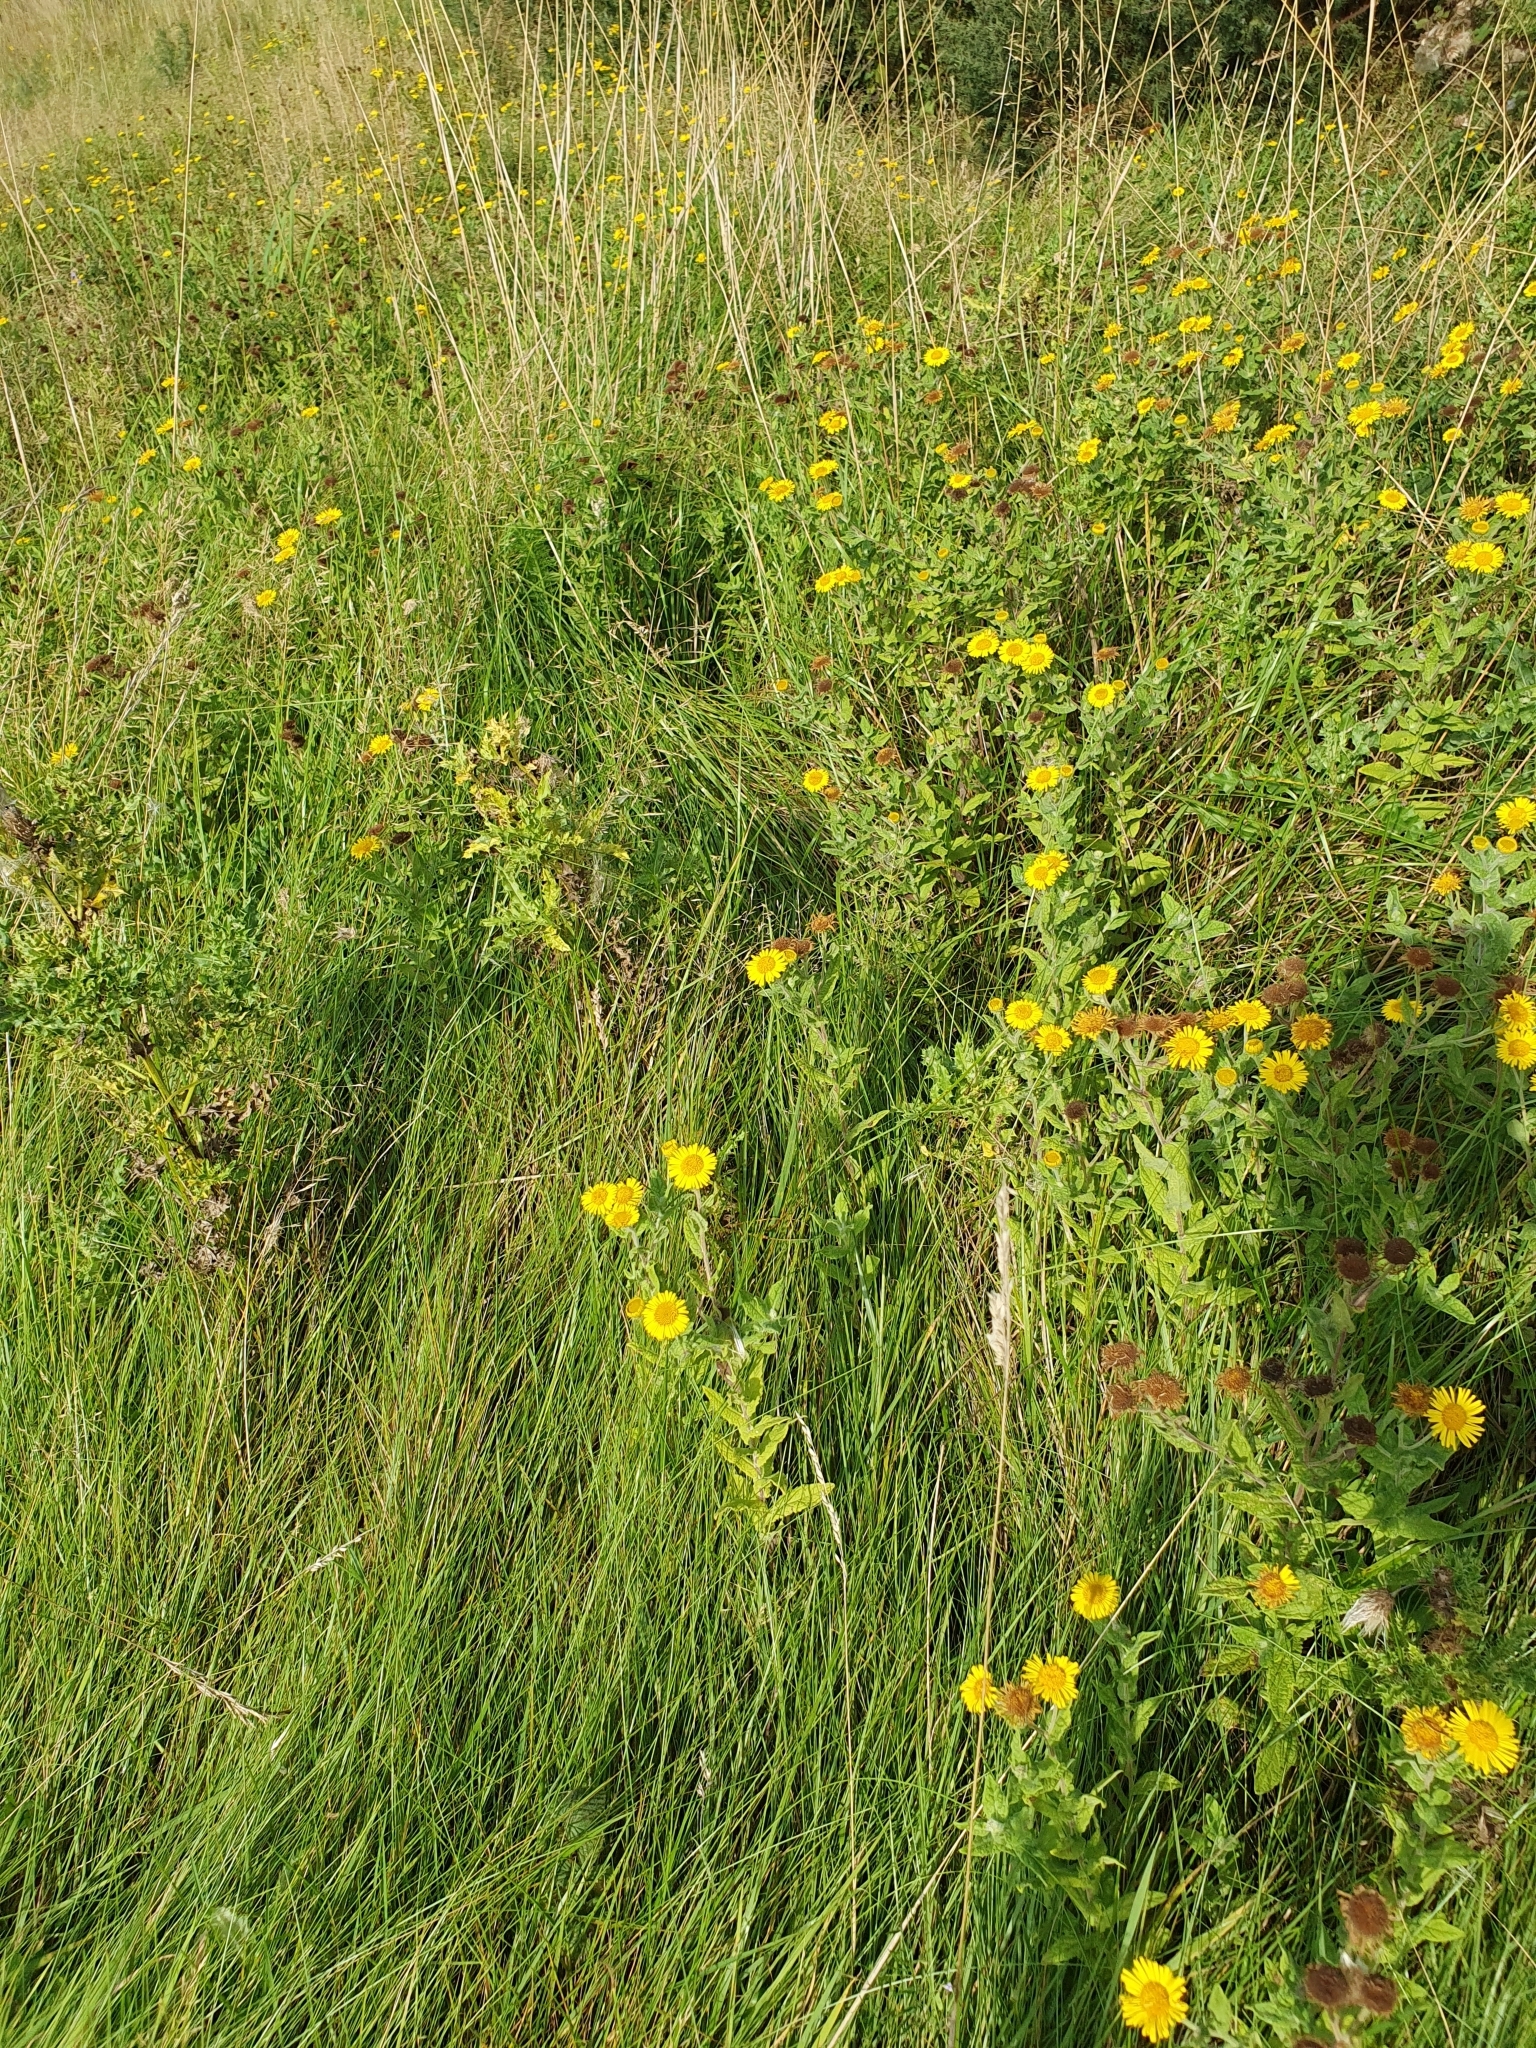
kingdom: Plantae
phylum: Tracheophyta
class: Magnoliopsida
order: Asterales
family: Asteraceae
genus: Pulicaria
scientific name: Pulicaria dysenterica
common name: Common fleabane
